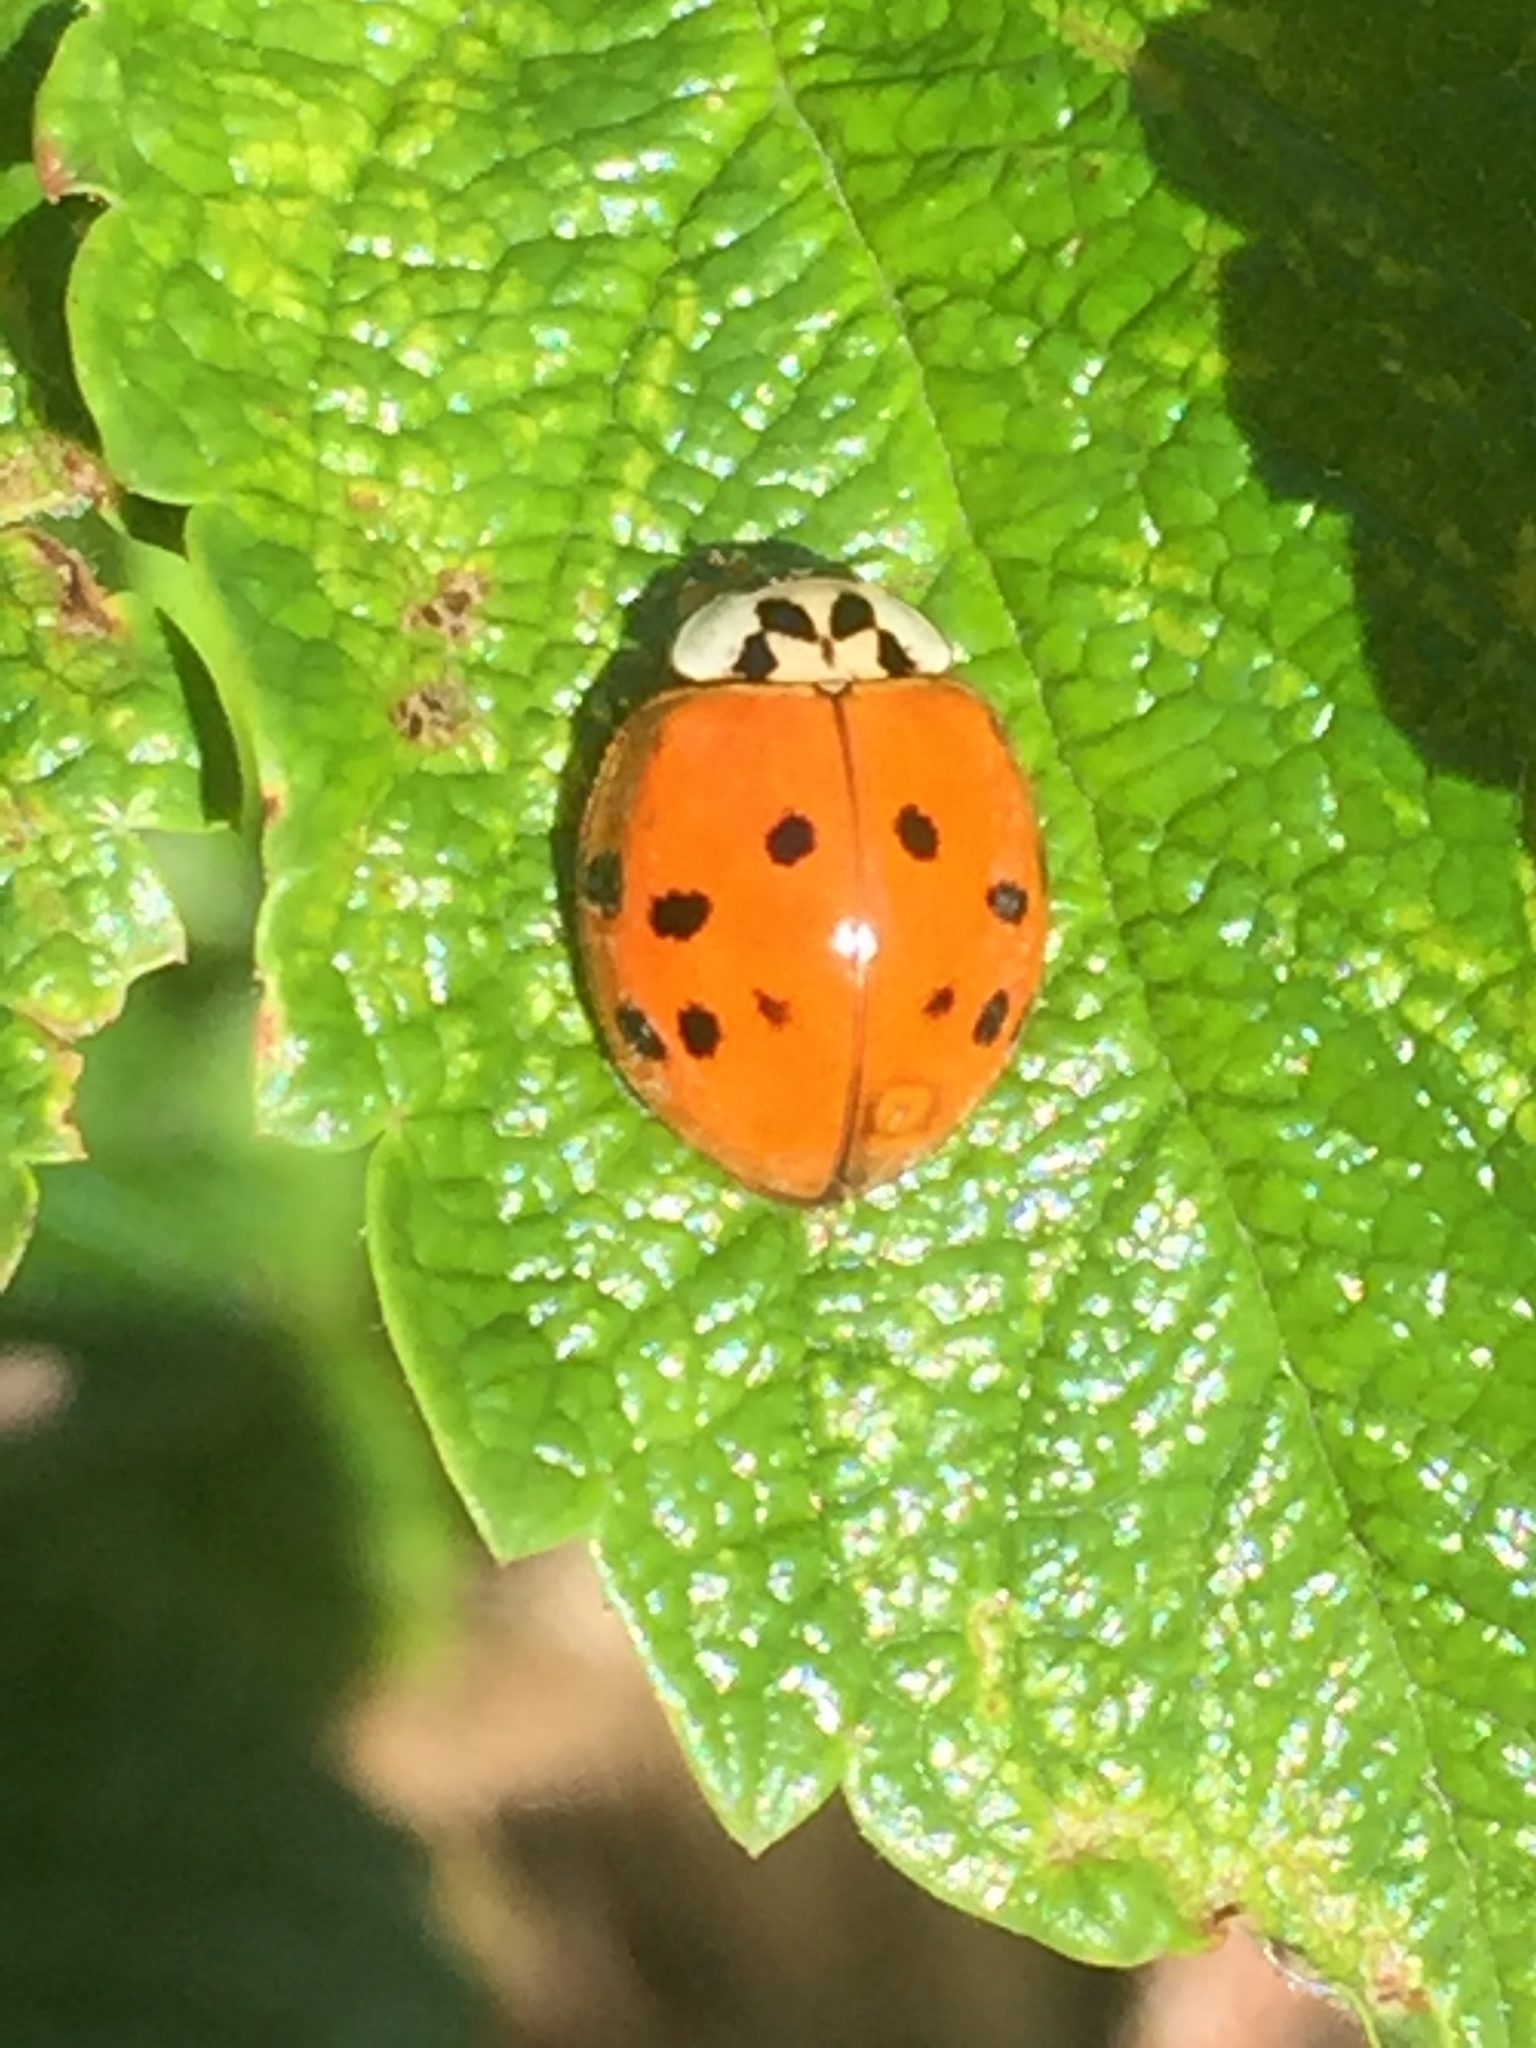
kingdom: Animalia
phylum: Arthropoda
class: Insecta
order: Coleoptera
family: Coccinellidae
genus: Harmonia
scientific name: Harmonia axyridis
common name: Harlequin ladybird
